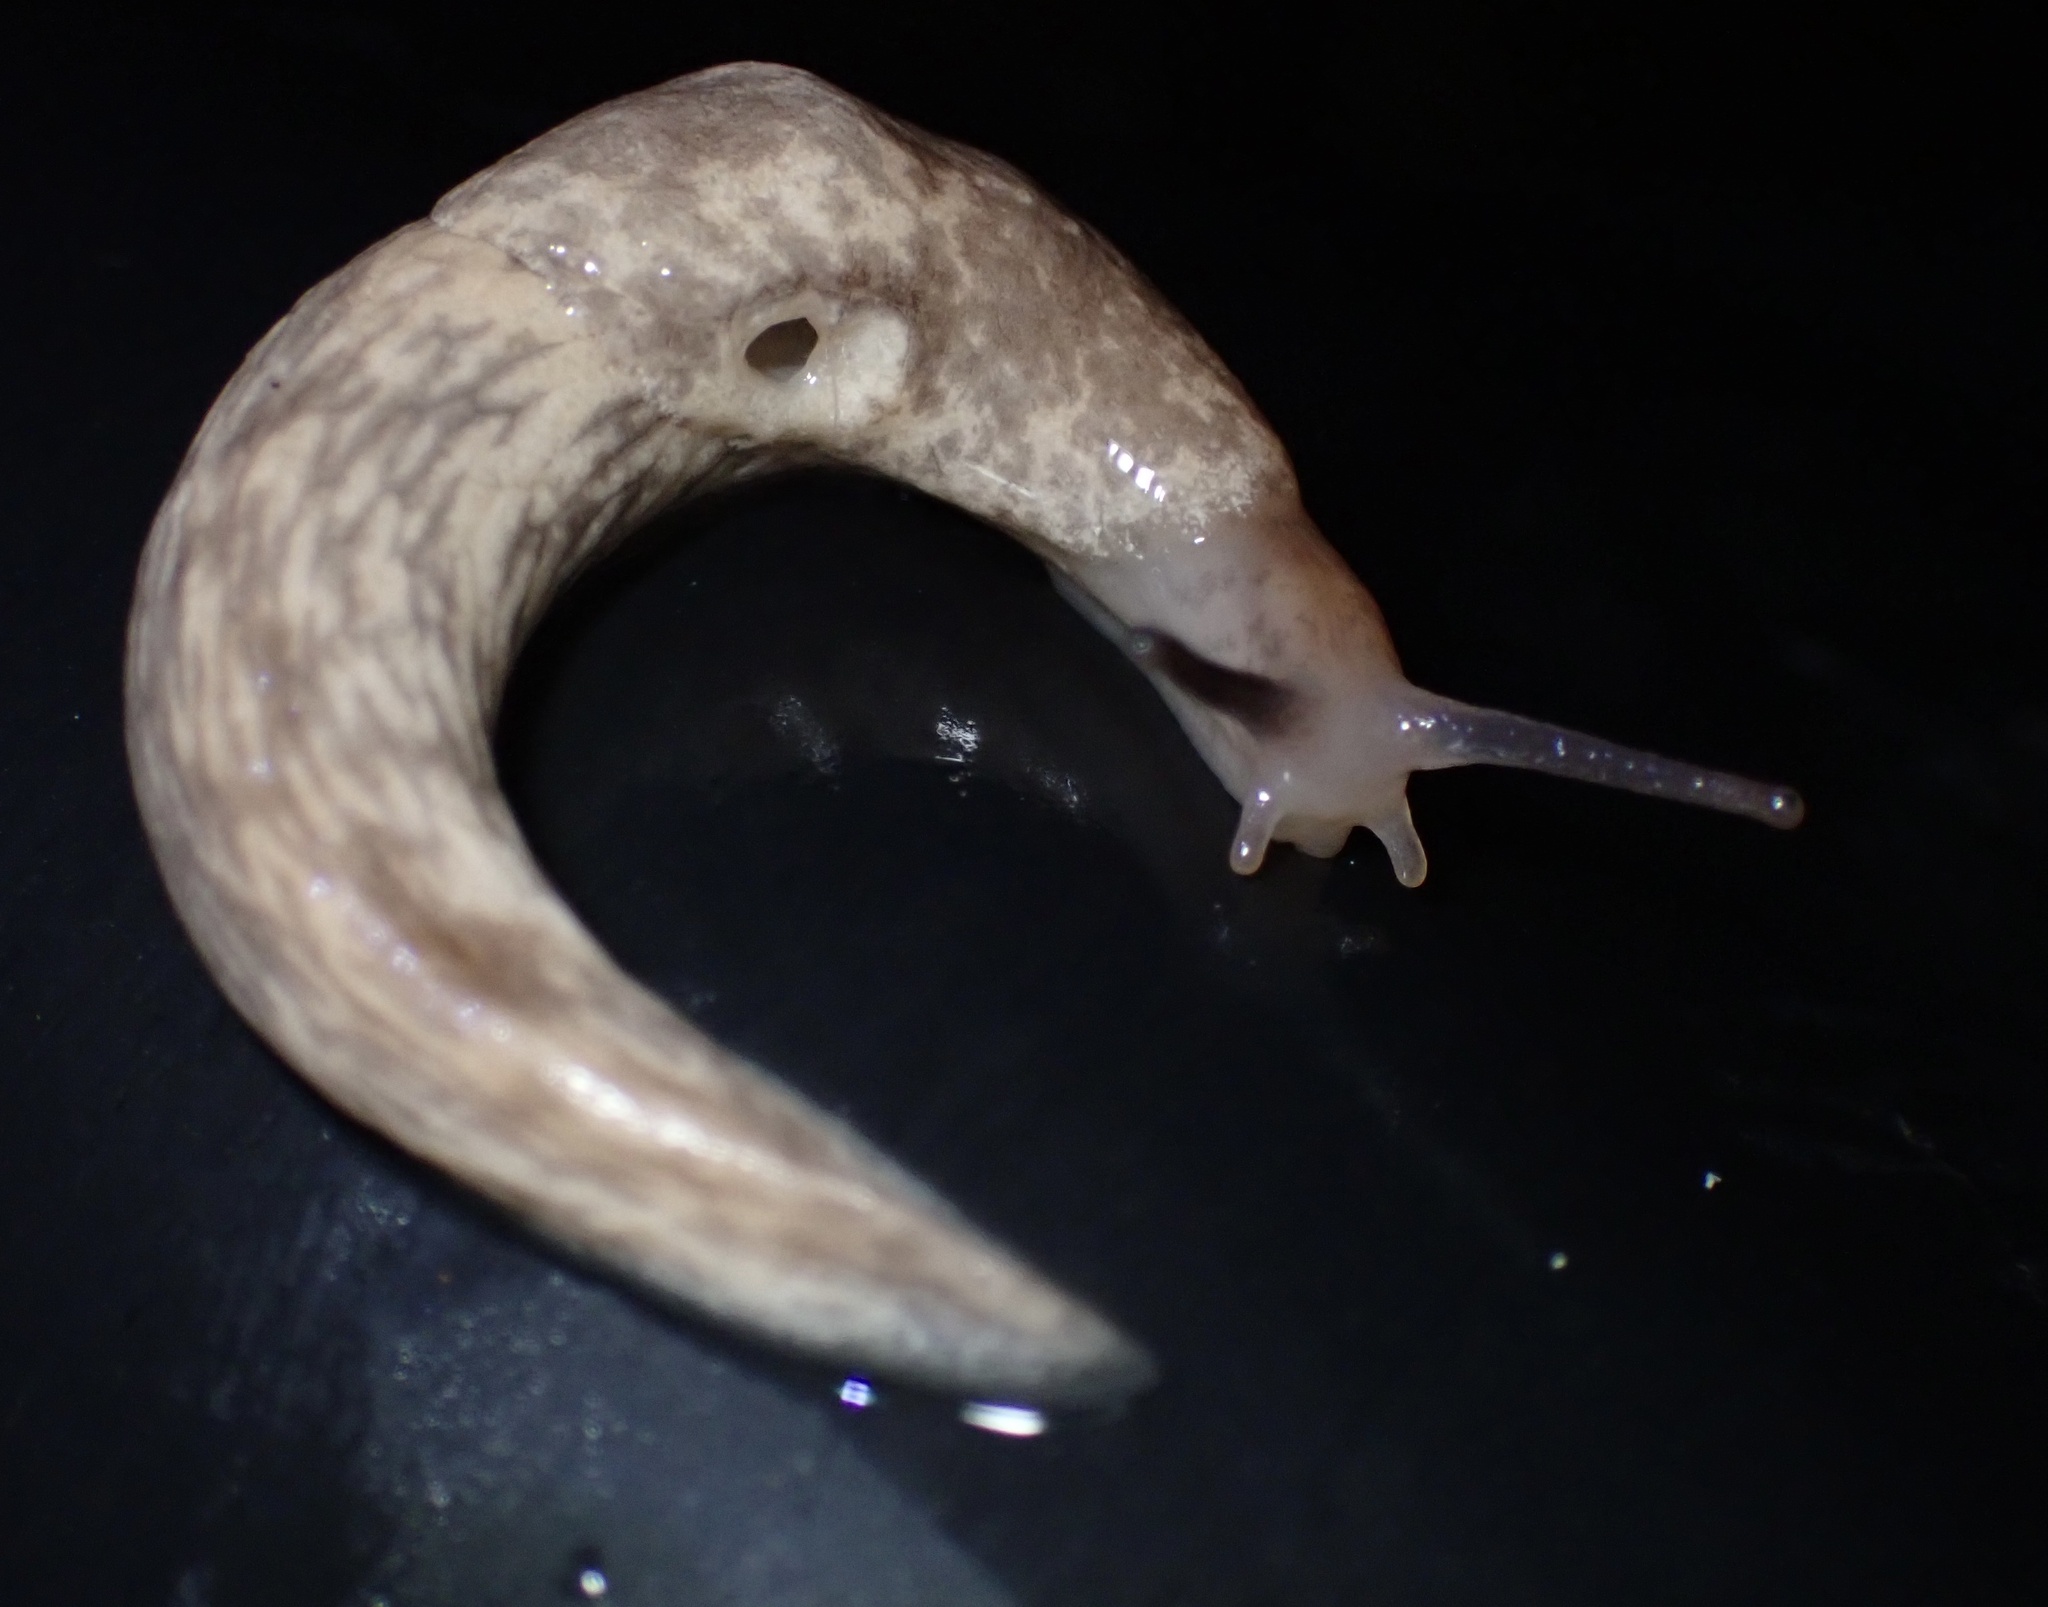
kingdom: Animalia
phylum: Mollusca
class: Gastropoda
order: Stylommatophora
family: Agriolimacidae
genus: Deroceras
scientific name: Deroceras reticulatum
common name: Gray field slug
